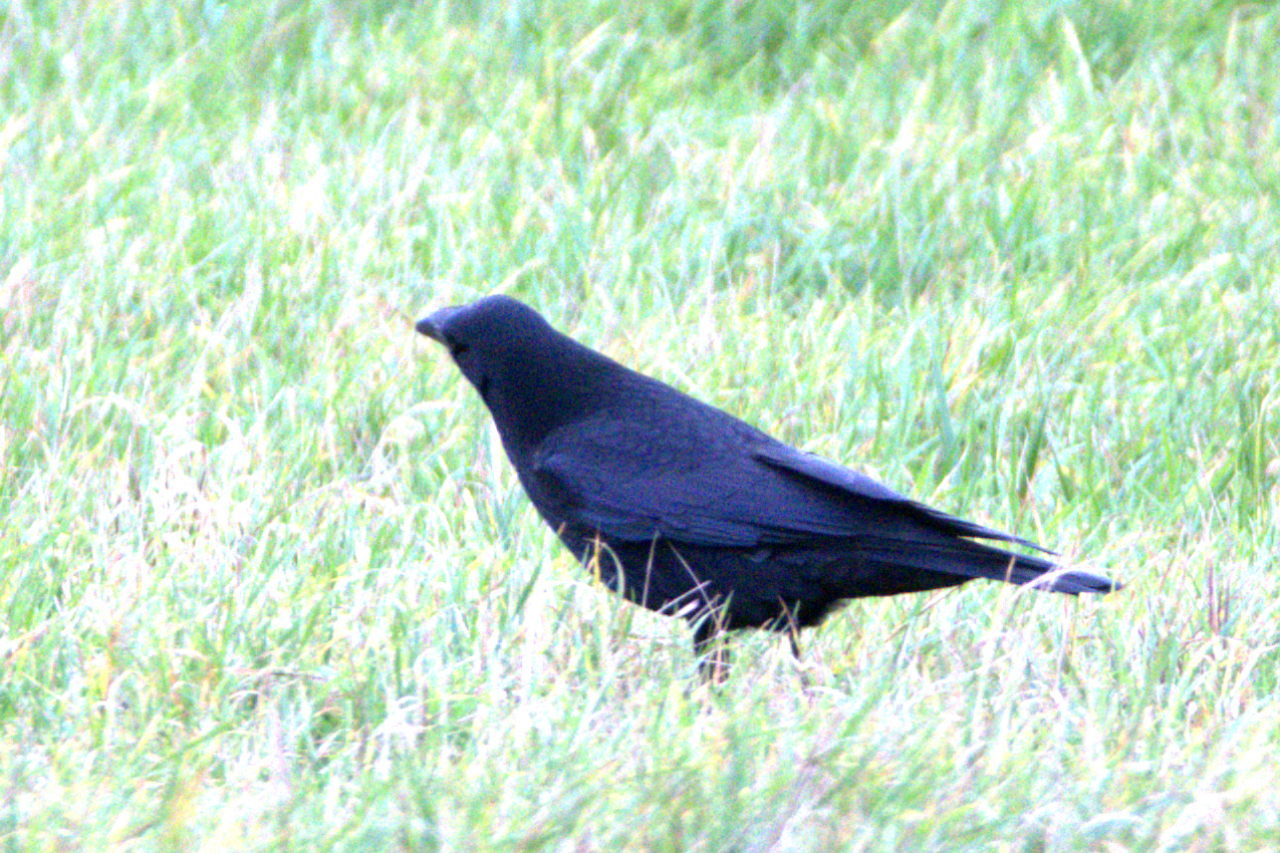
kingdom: Animalia
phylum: Chordata
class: Aves
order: Passeriformes
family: Corvidae
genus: Corvus
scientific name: Corvus corone
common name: Carrion crow
